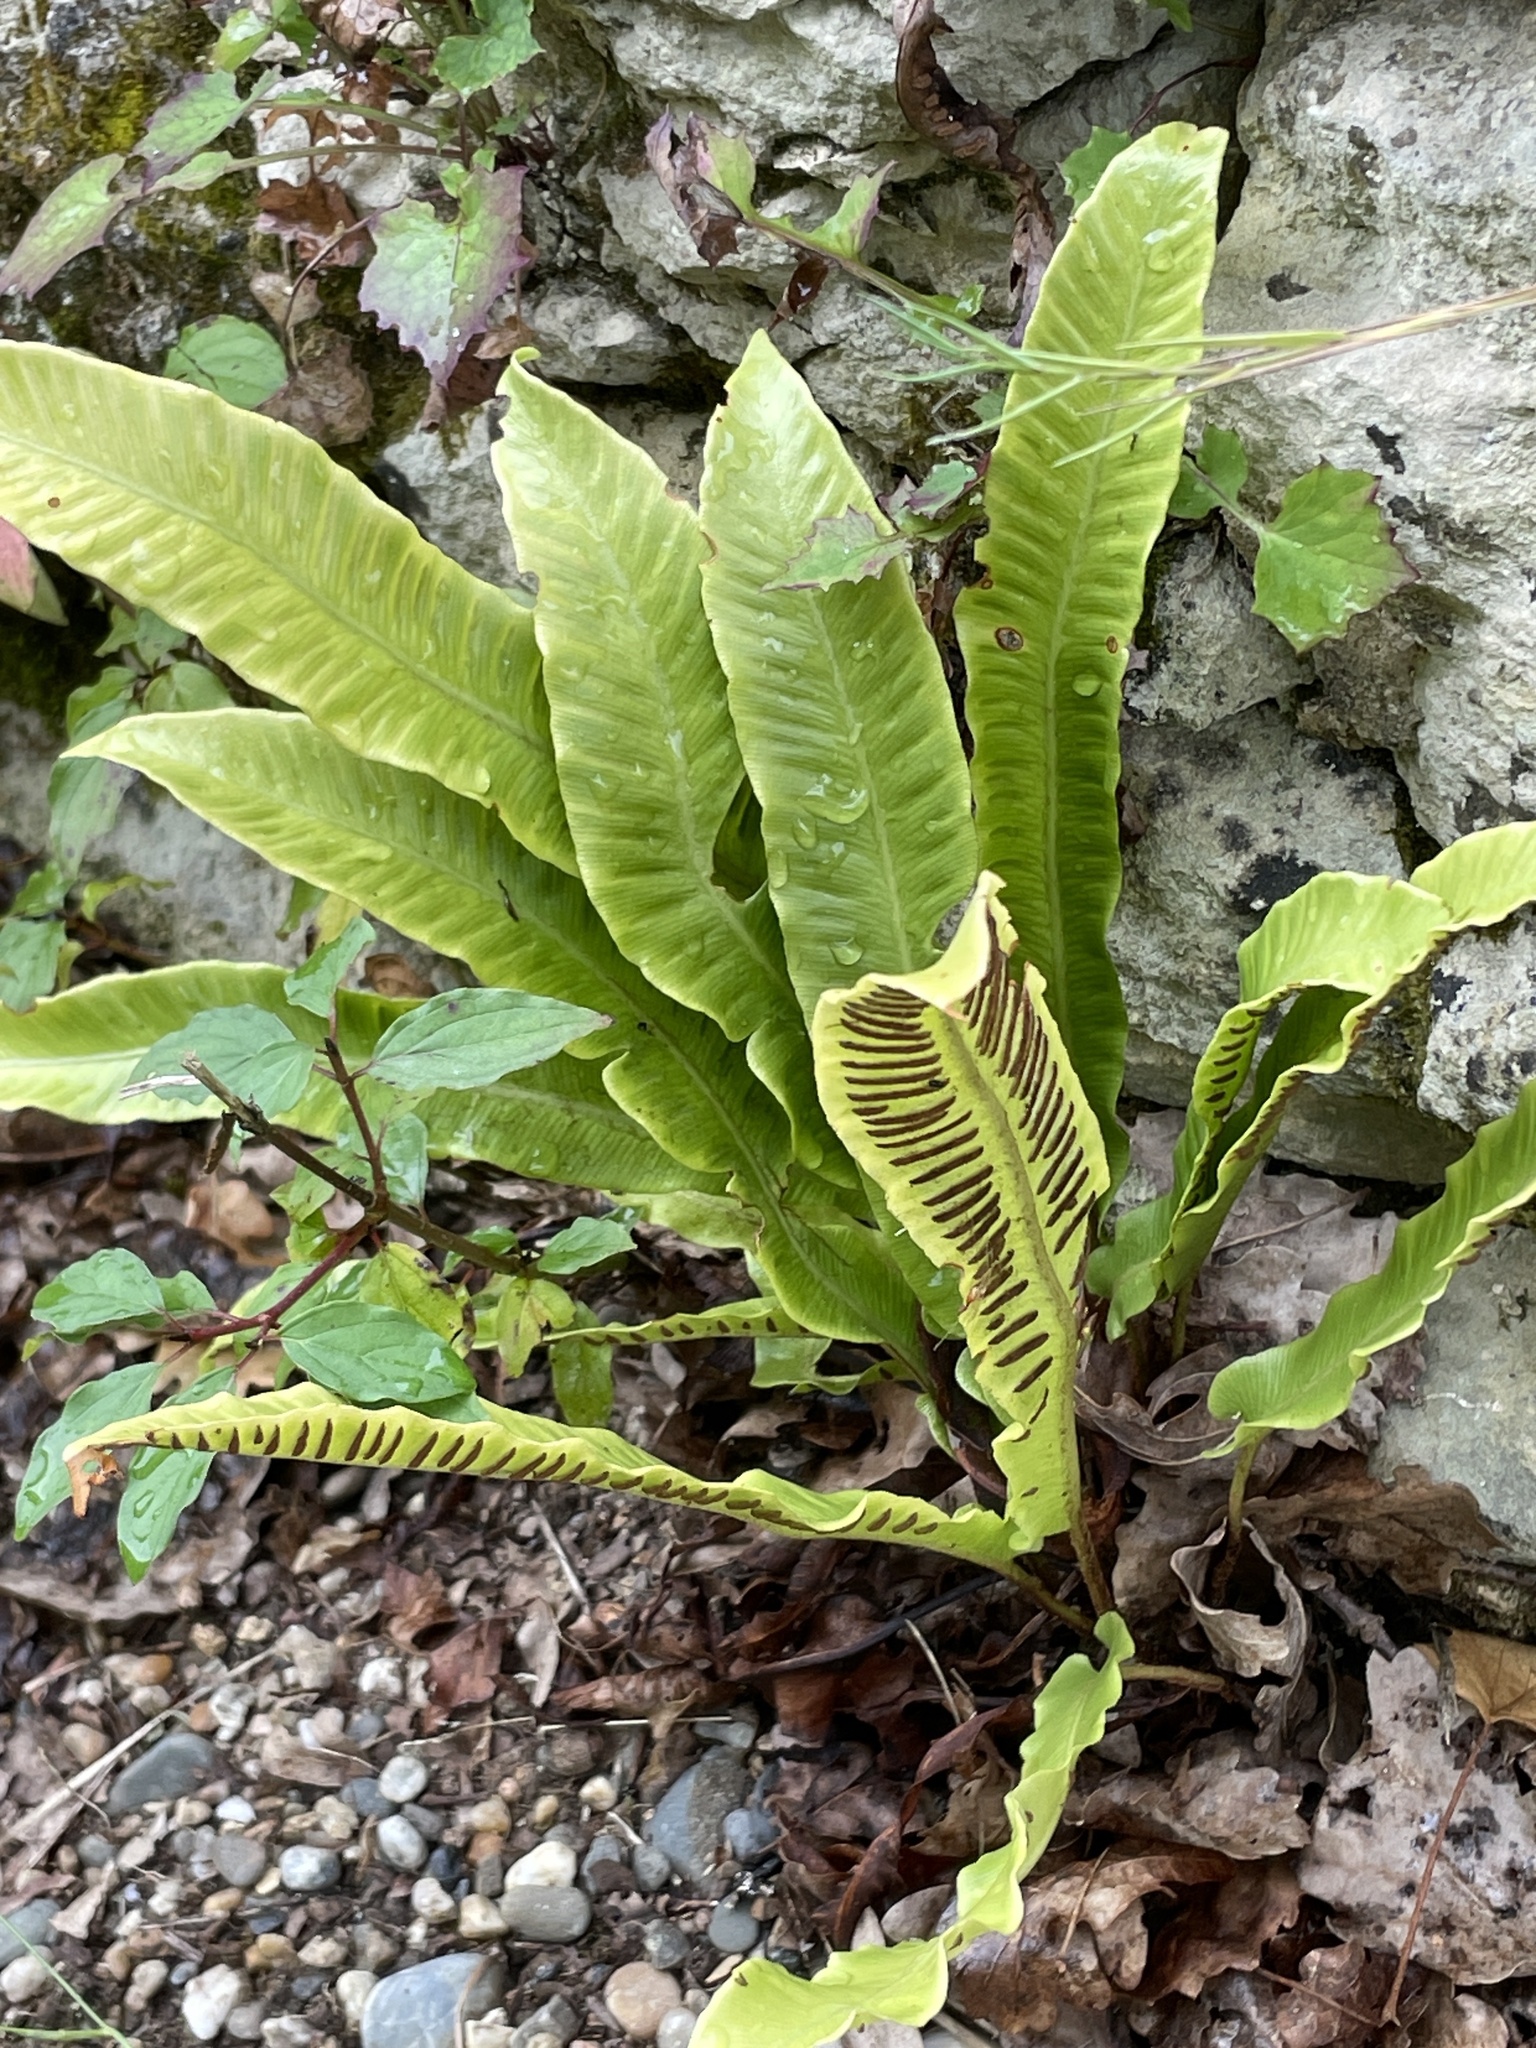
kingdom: Plantae
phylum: Tracheophyta
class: Polypodiopsida
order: Polypodiales
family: Aspleniaceae
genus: Asplenium
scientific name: Asplenium scolopendrium
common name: Hart's-tongue fern
